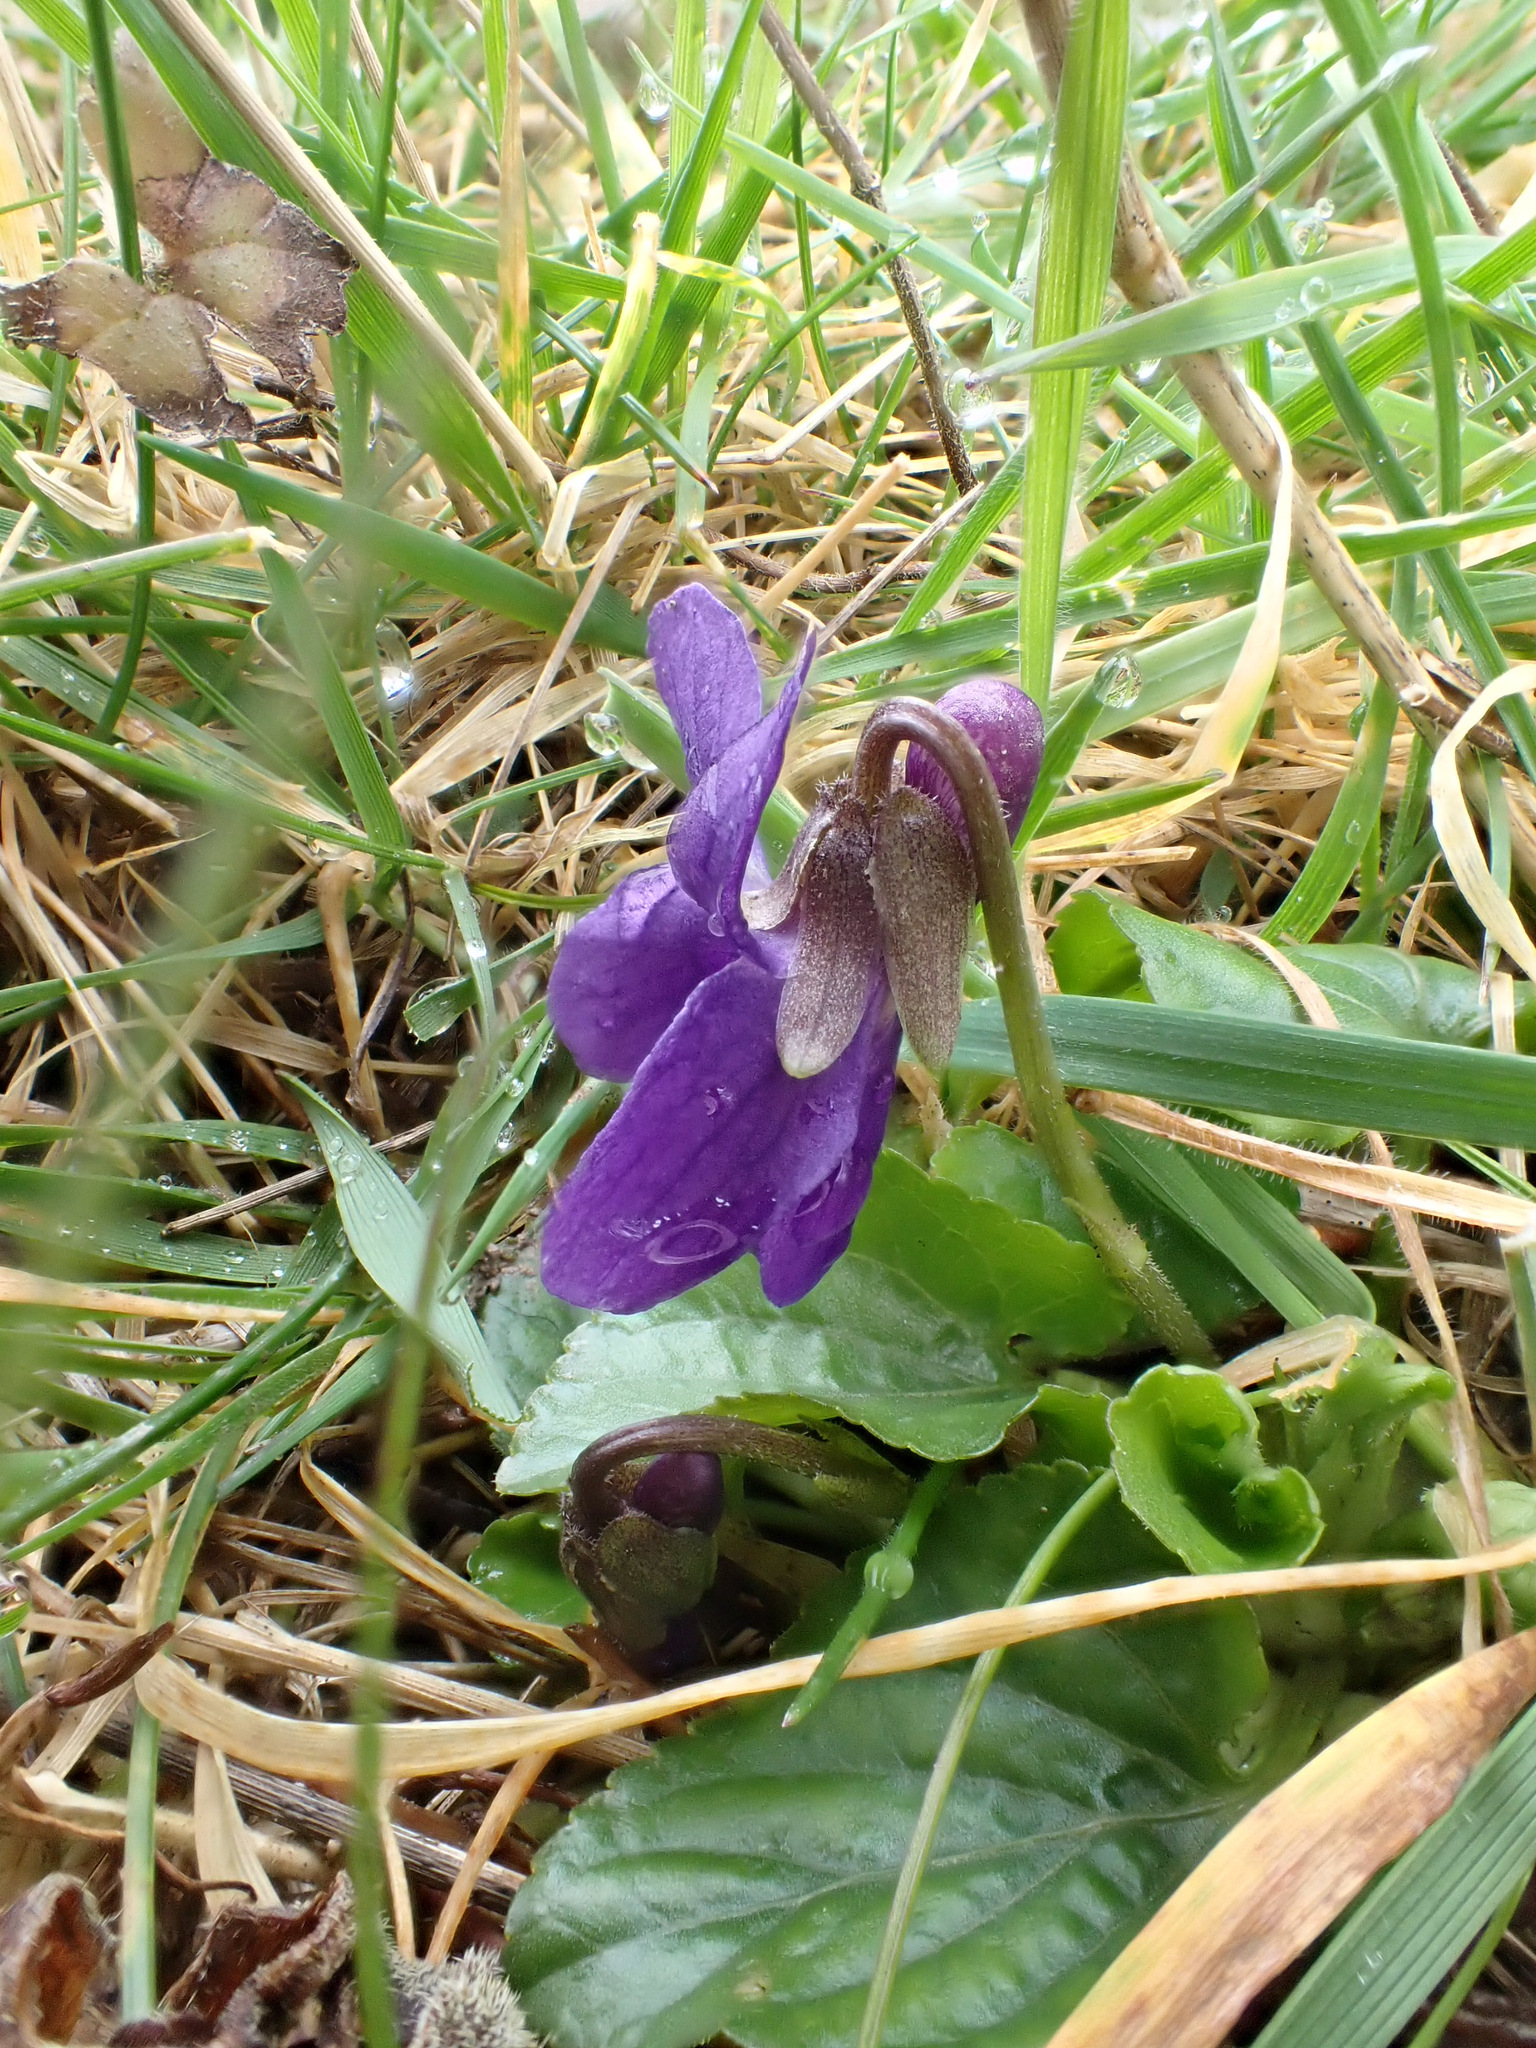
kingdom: Plantae
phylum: Tracheophyta
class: Magnoliopsida
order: Malpighiales
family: Violaceae
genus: Viola
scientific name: Viola odorata
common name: Sweet violet
